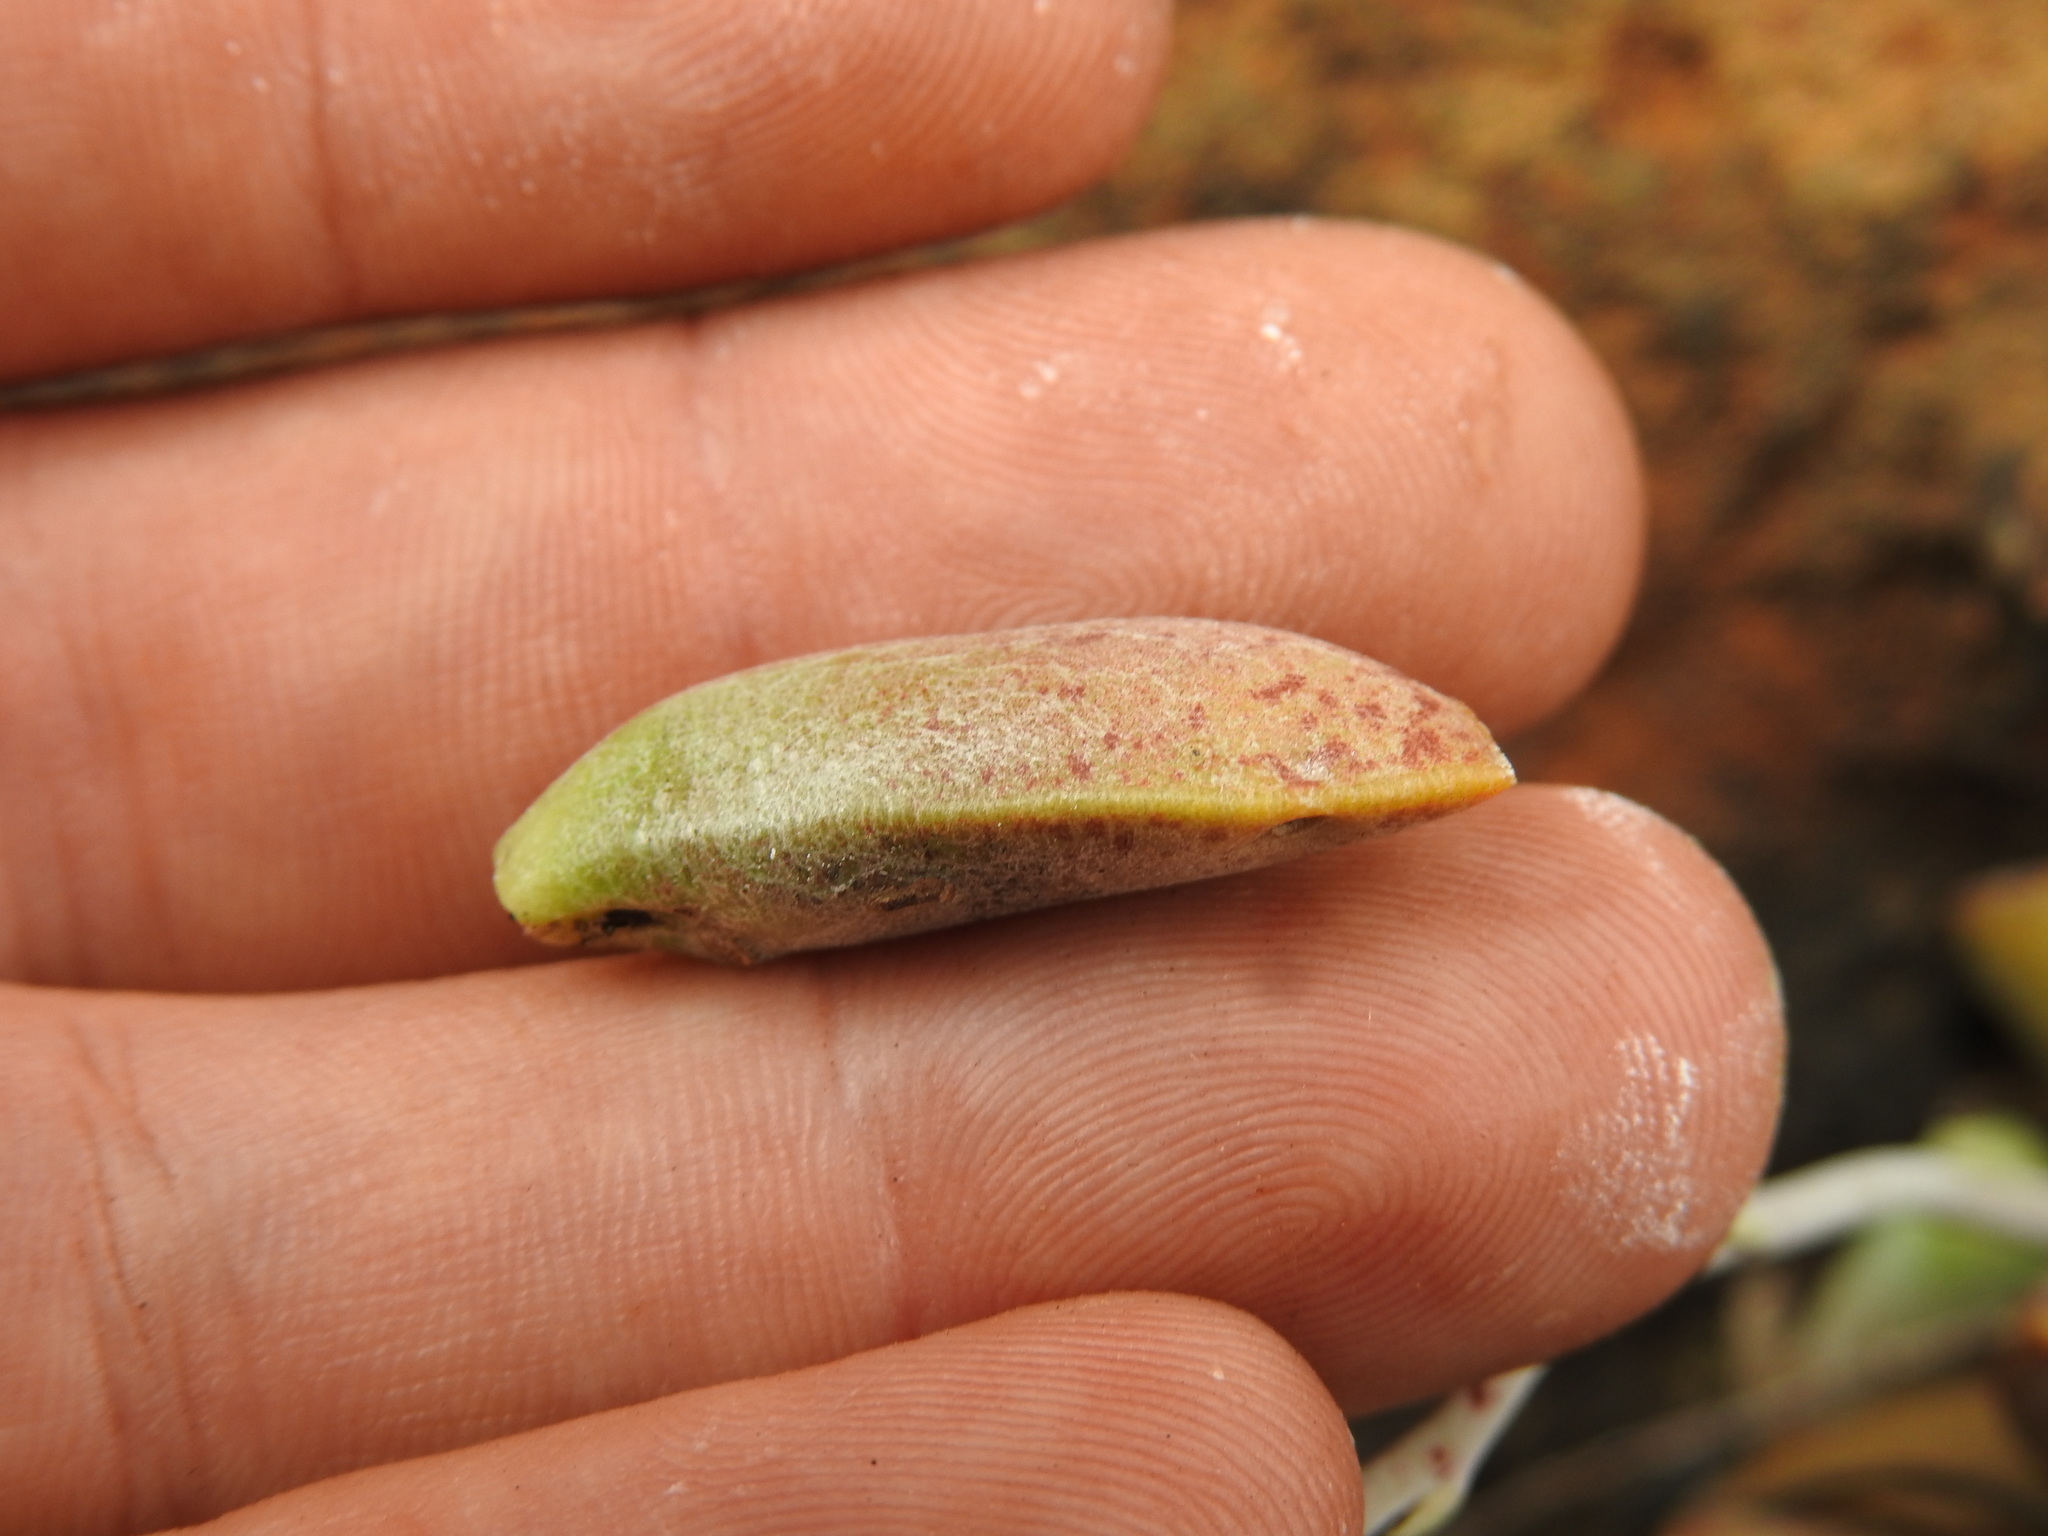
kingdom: Plantae
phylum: Tracheophyta
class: Magnoliopsida
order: Saxifragales
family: Crassulaceae
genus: Adromischus
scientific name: Adromischus umbraticola
